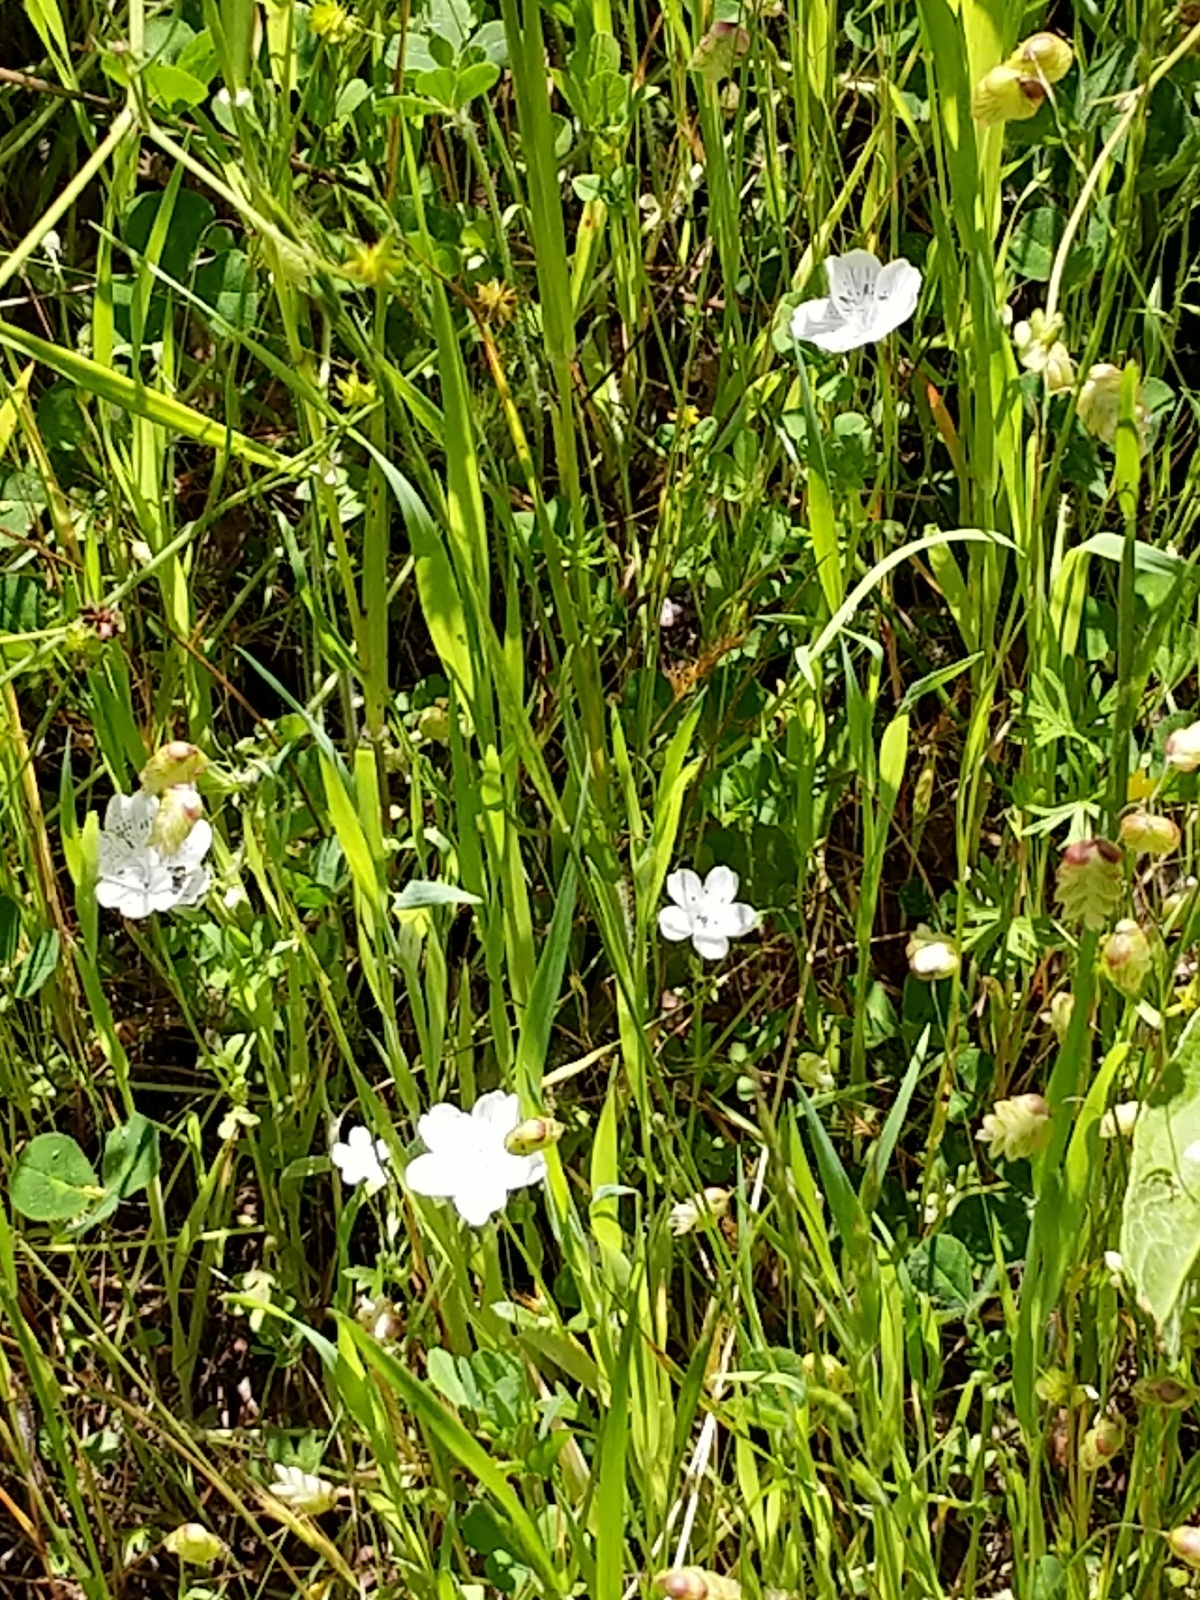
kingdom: Plantae
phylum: Tracheophyta
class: Magnoliopsida
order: Boraginales
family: Hydrophyllaceae
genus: Nemophila
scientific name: Nemophila menziesii
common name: Baby's-blue-eyes
